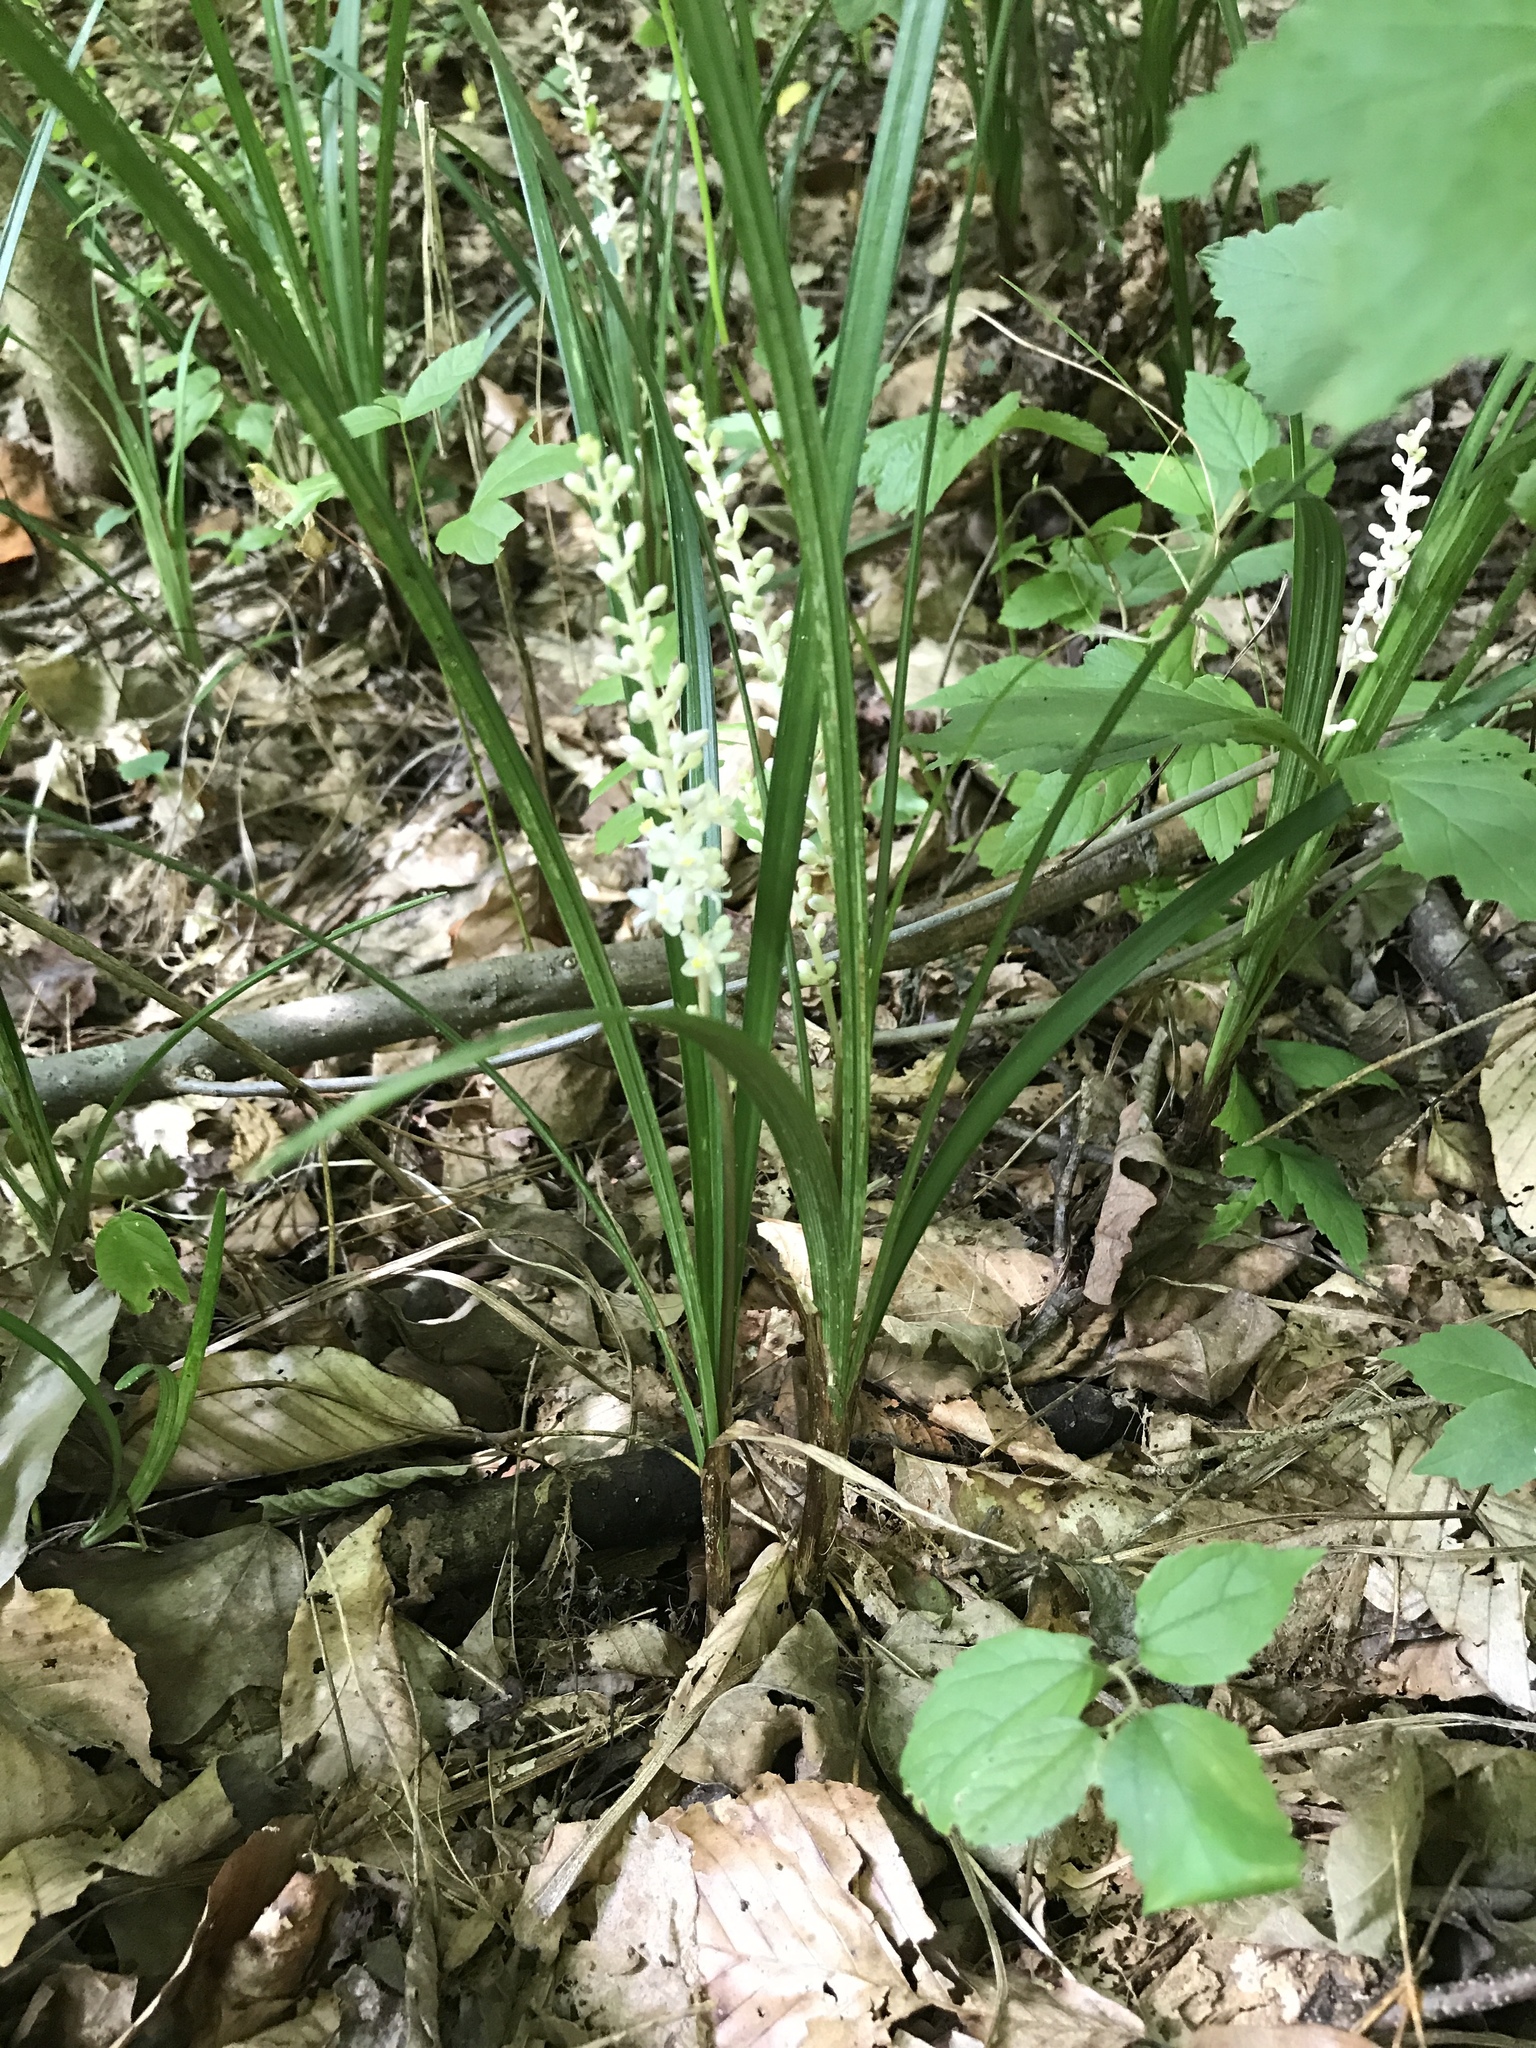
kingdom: Plantae
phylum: Tracheophyta
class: Liliopsida
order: Asparagales
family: Asparagaceae
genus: Liriope
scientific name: Liriope spicata
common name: Creeping liriope
